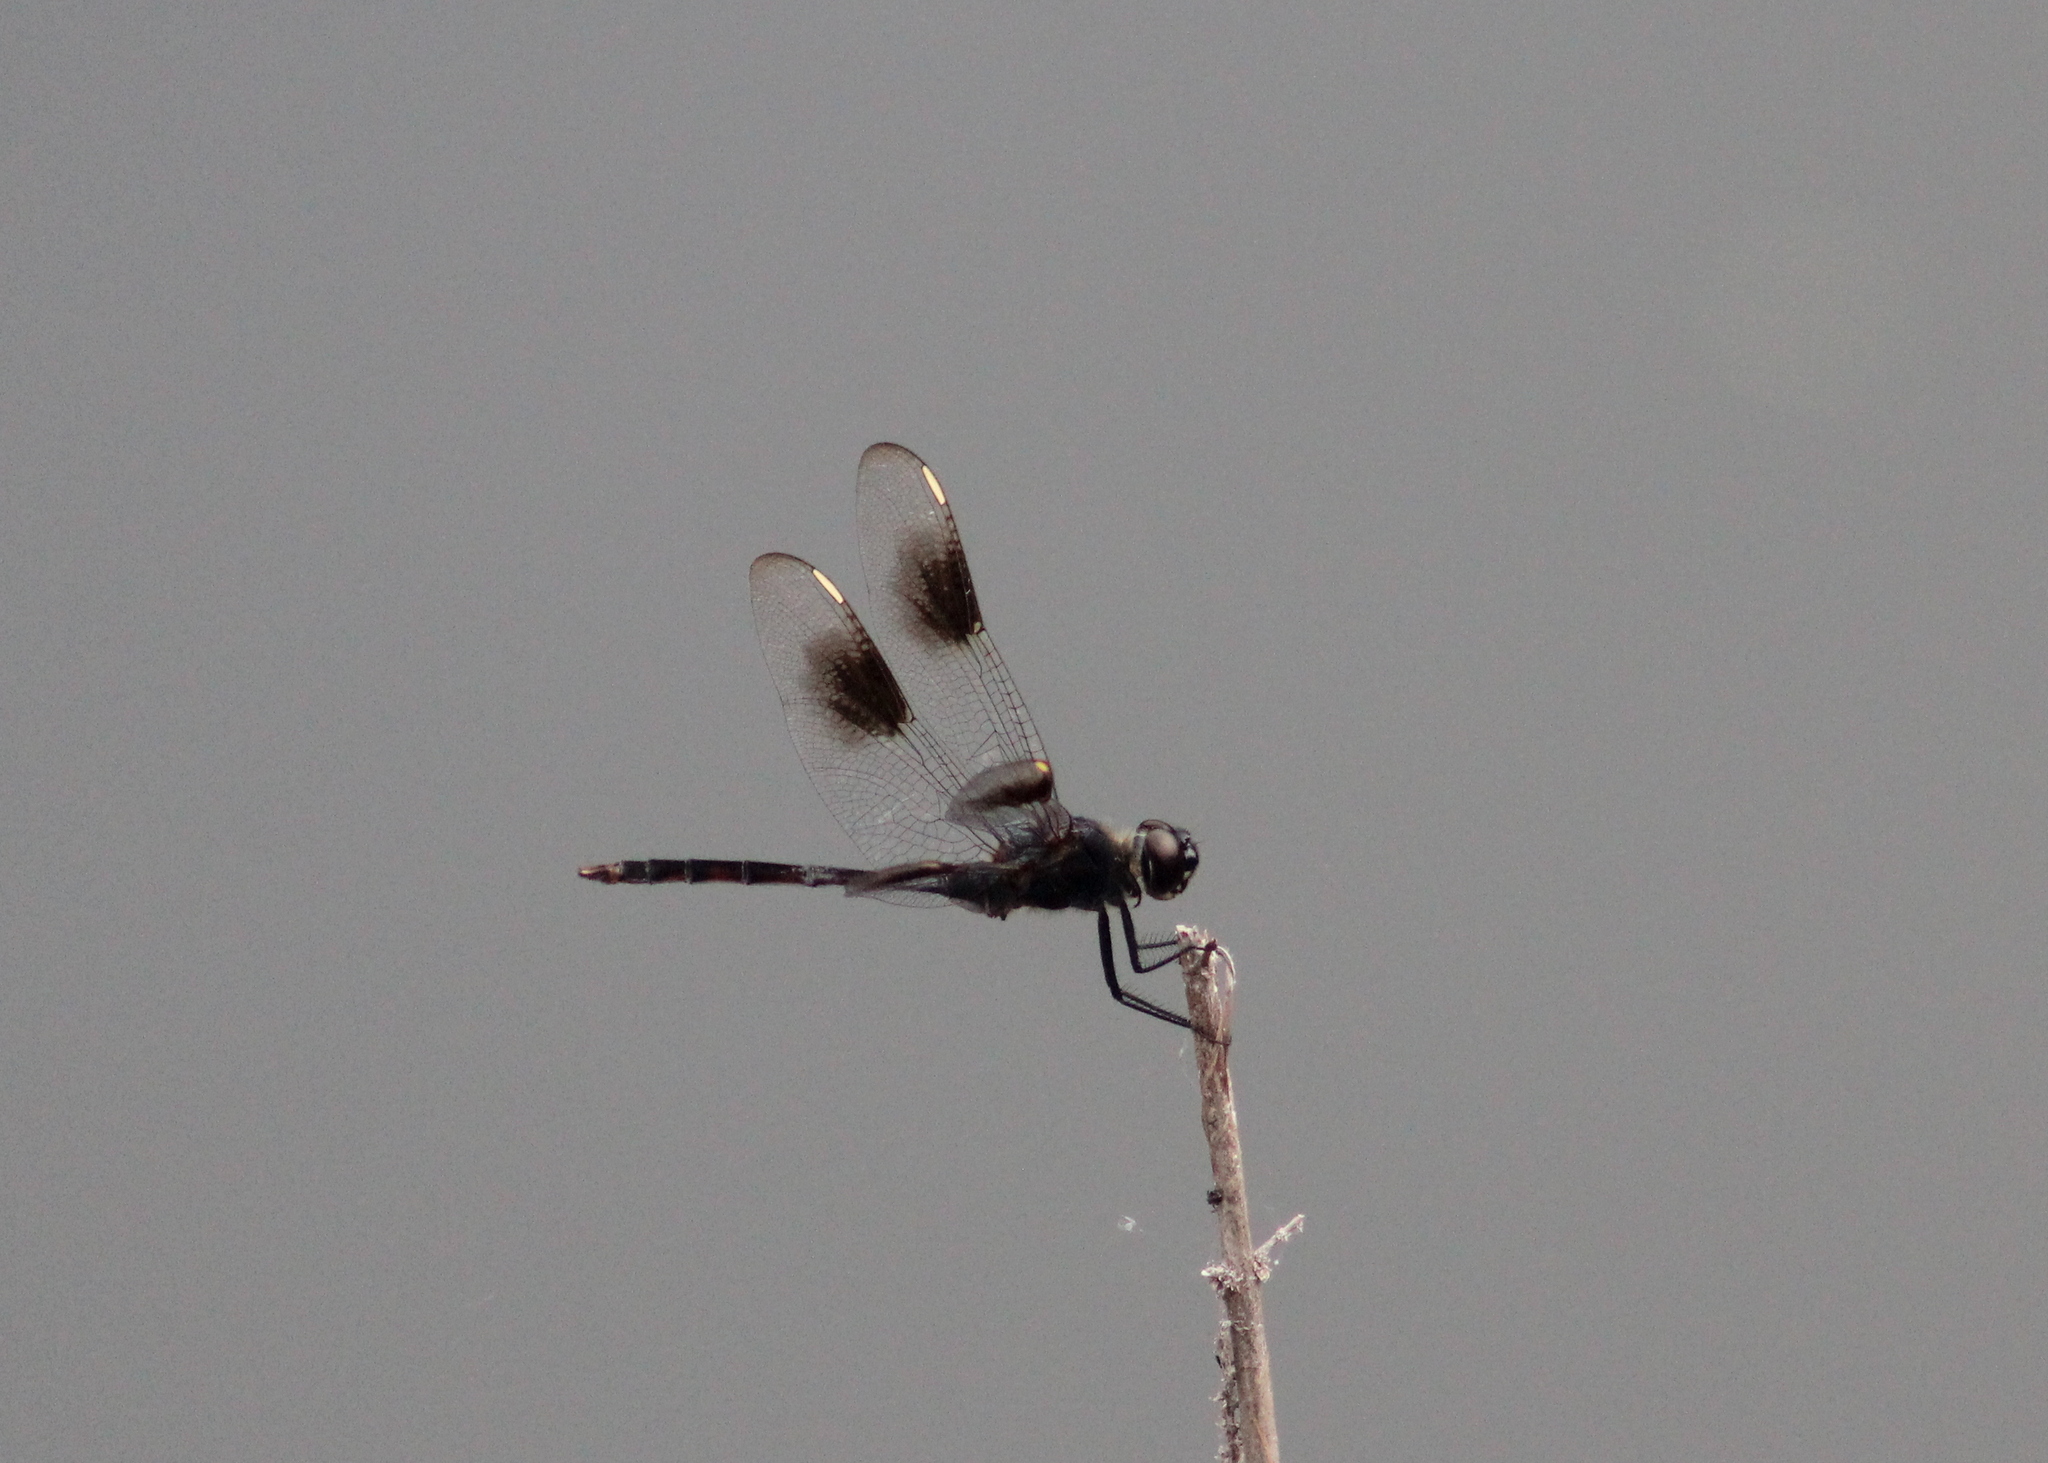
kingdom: Animalia
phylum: Arthropoda
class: Insecta
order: Odonata
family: Libellulidae
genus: Brachymesia
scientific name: Brachymesia gravida
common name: Four-spotted pennant
